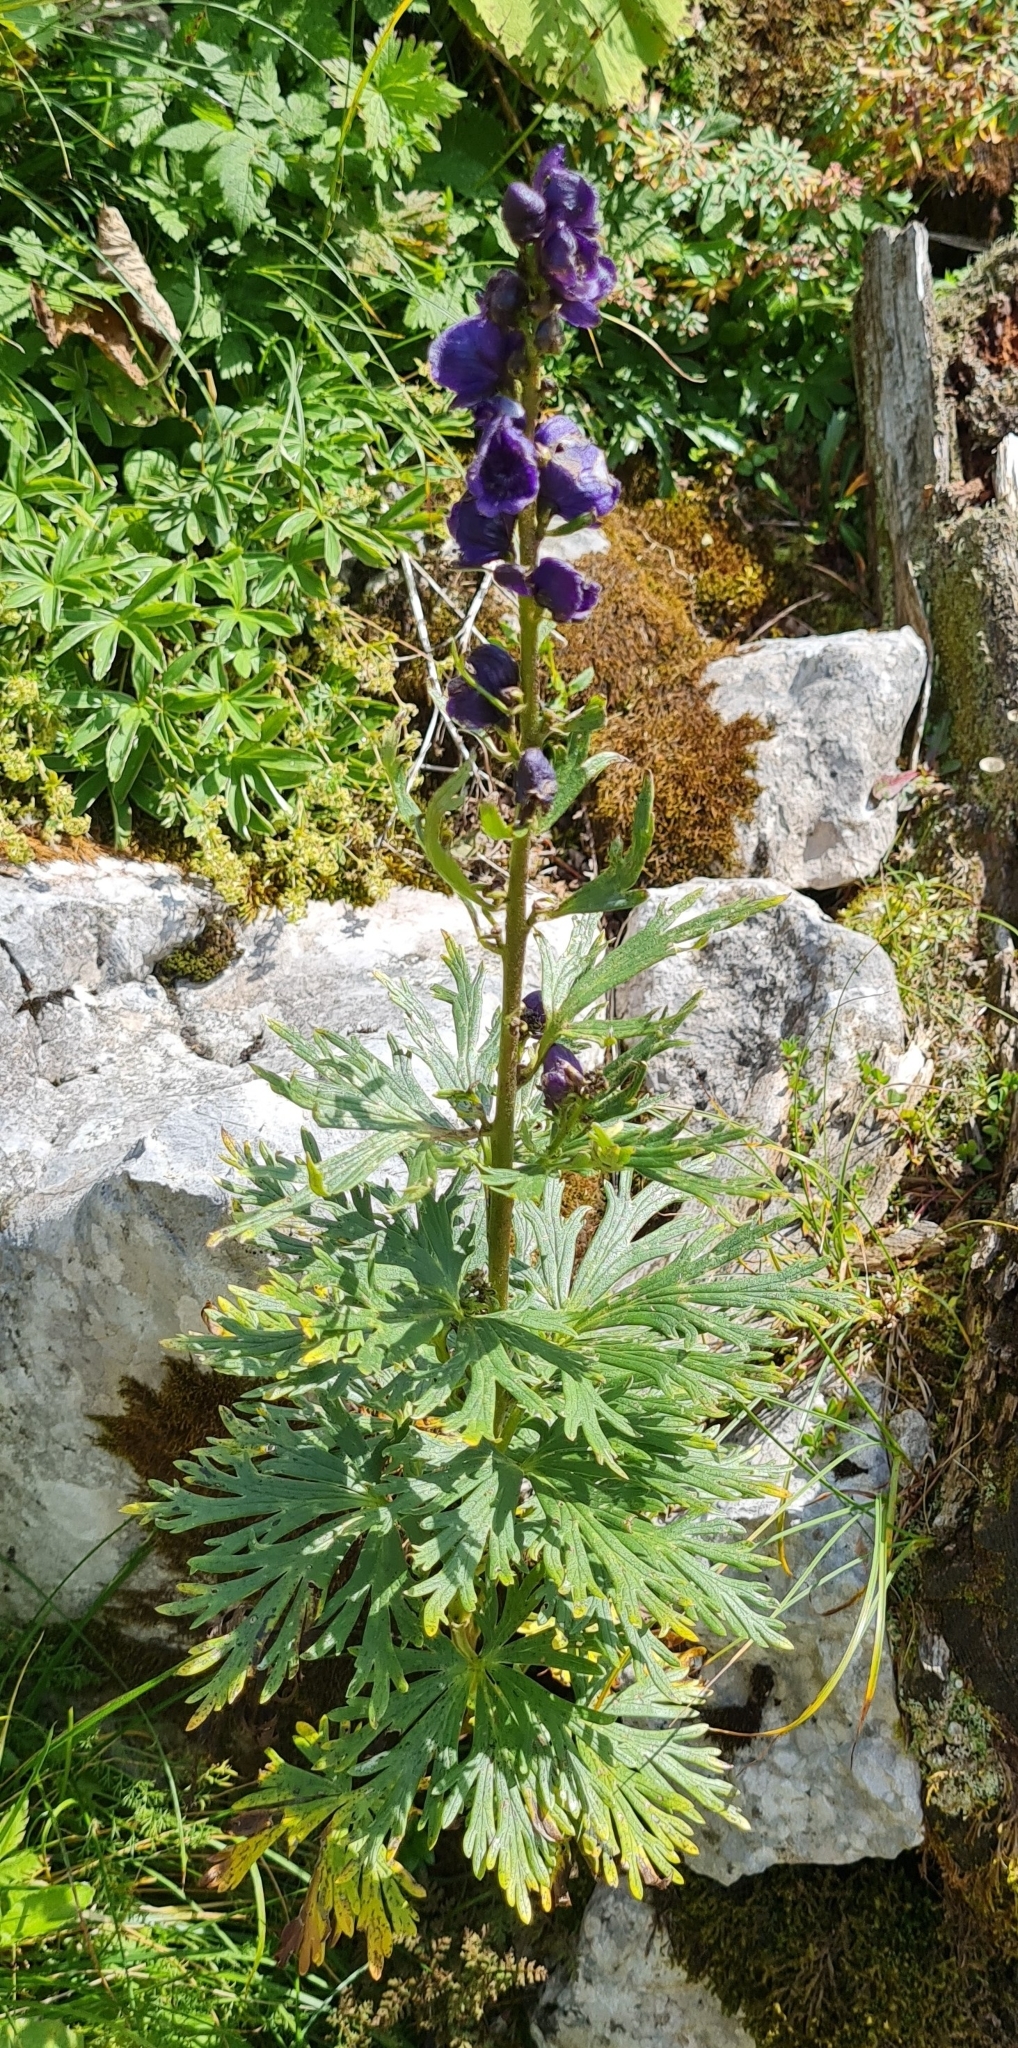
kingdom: Plantae
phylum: Tracheophyta
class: Magnoliopsida
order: Ranunculales
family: Ranunculaceae
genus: Aconitum
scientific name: Aconitum napellus
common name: Garden monkshood
